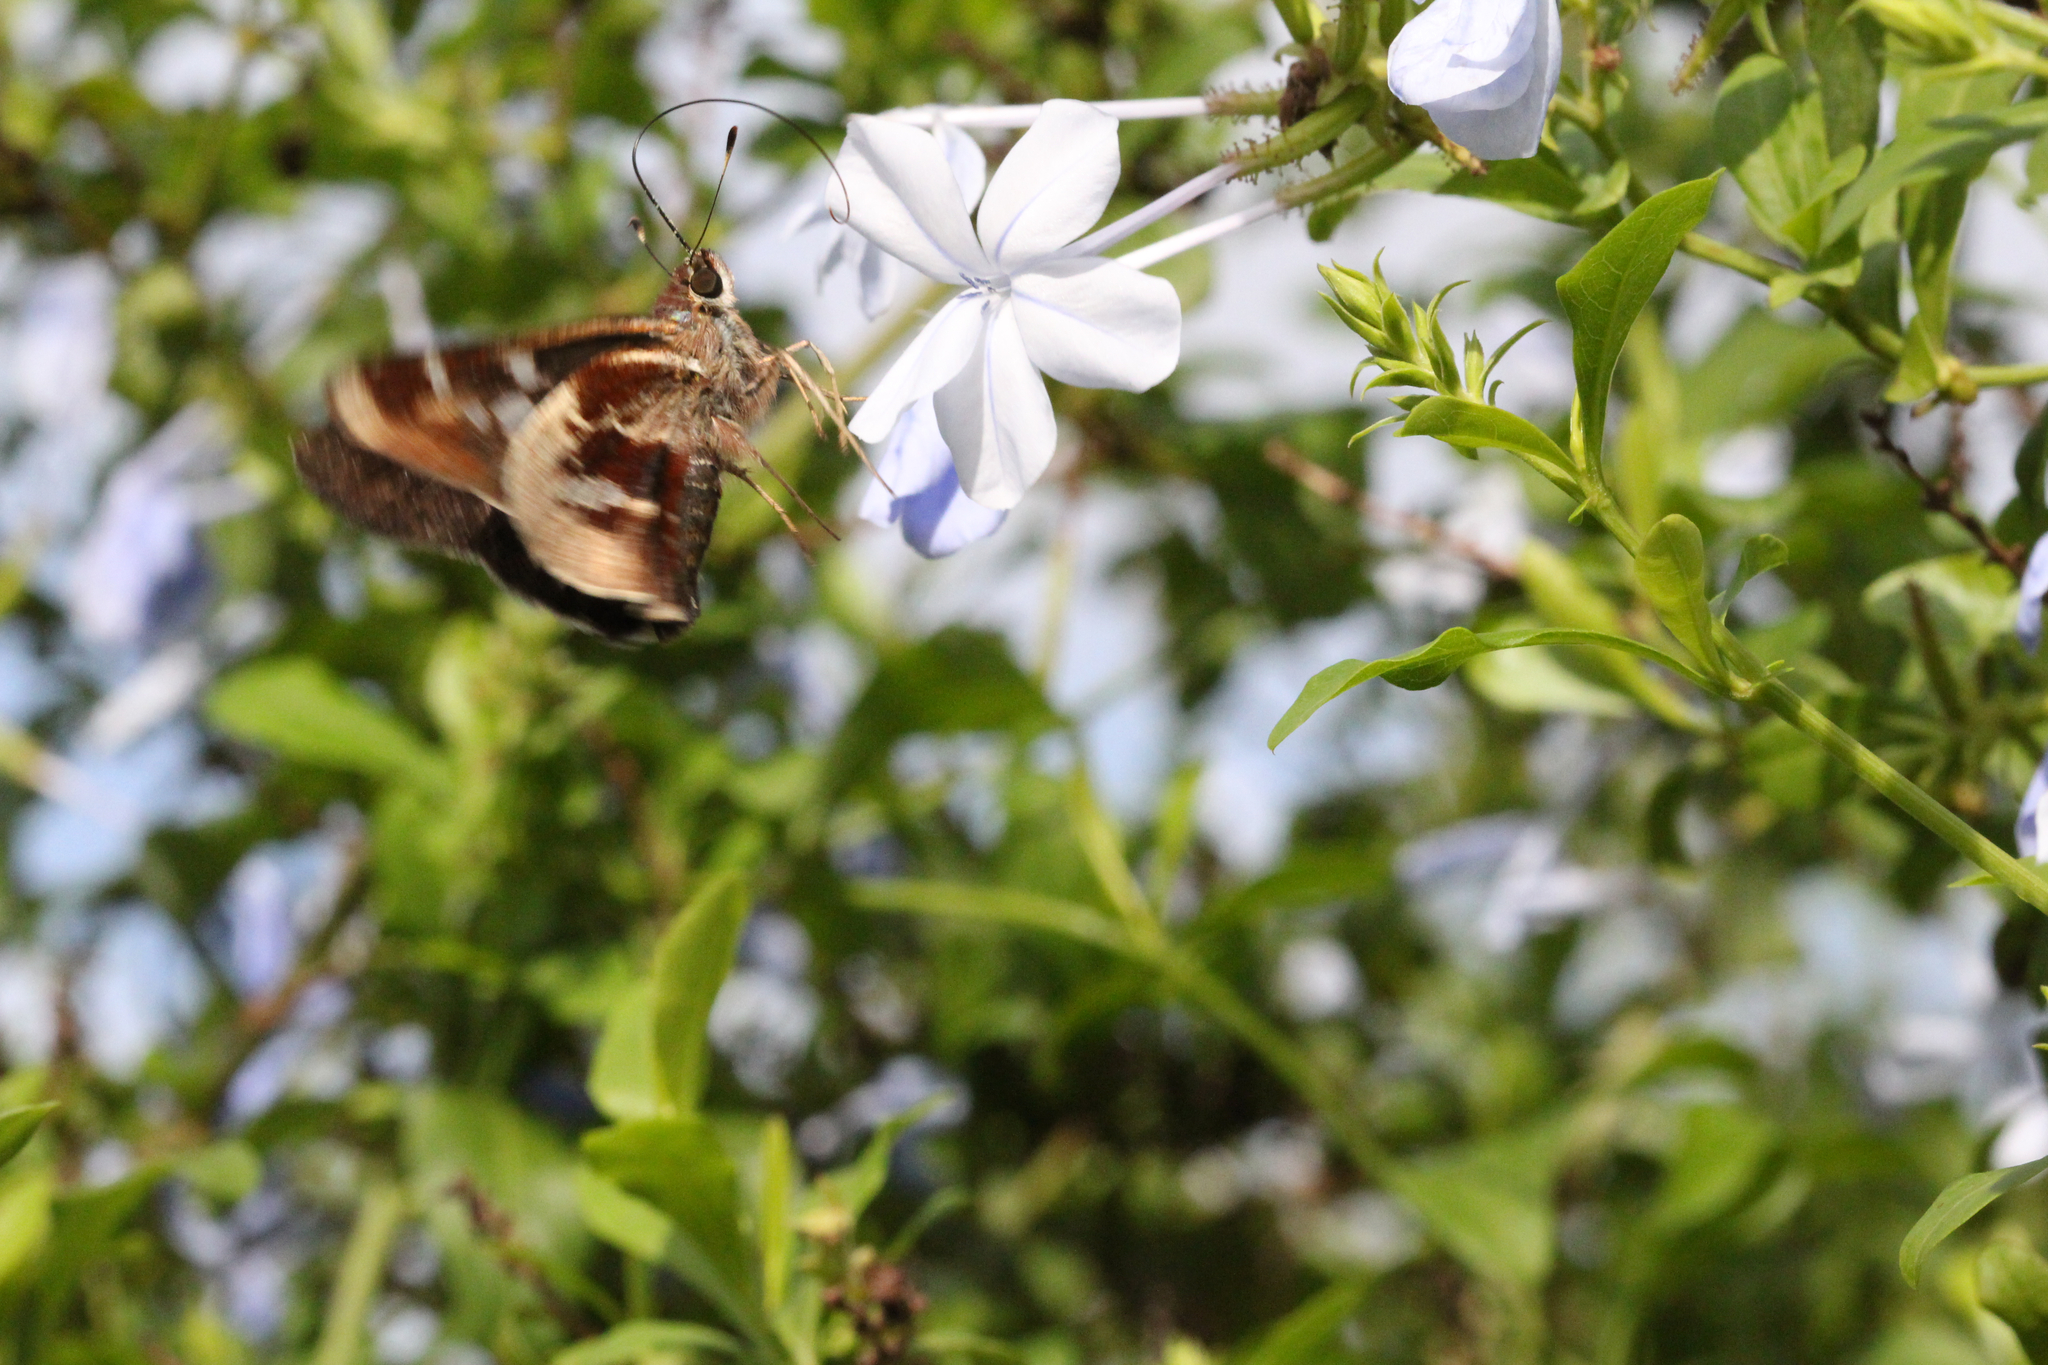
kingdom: Animalia
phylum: Arthropoda
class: Insecta
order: Lepidoptera
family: Hesperiidae
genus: Thespieus
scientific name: Thespieus aspernatus
